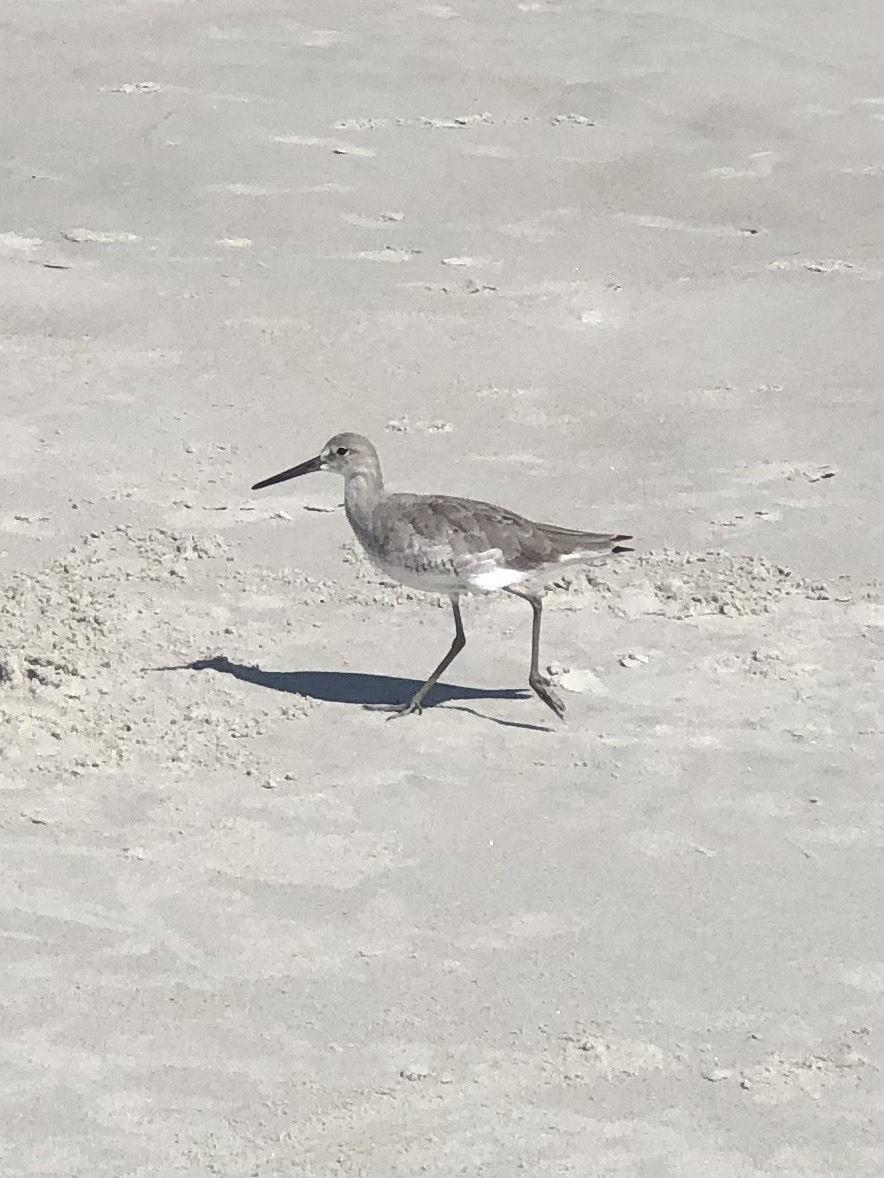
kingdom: Animalia
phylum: Chordata
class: Aves
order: Charadriiformes
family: Scolopacidae
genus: Tringa
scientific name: Tringa semipalmata
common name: Willet
